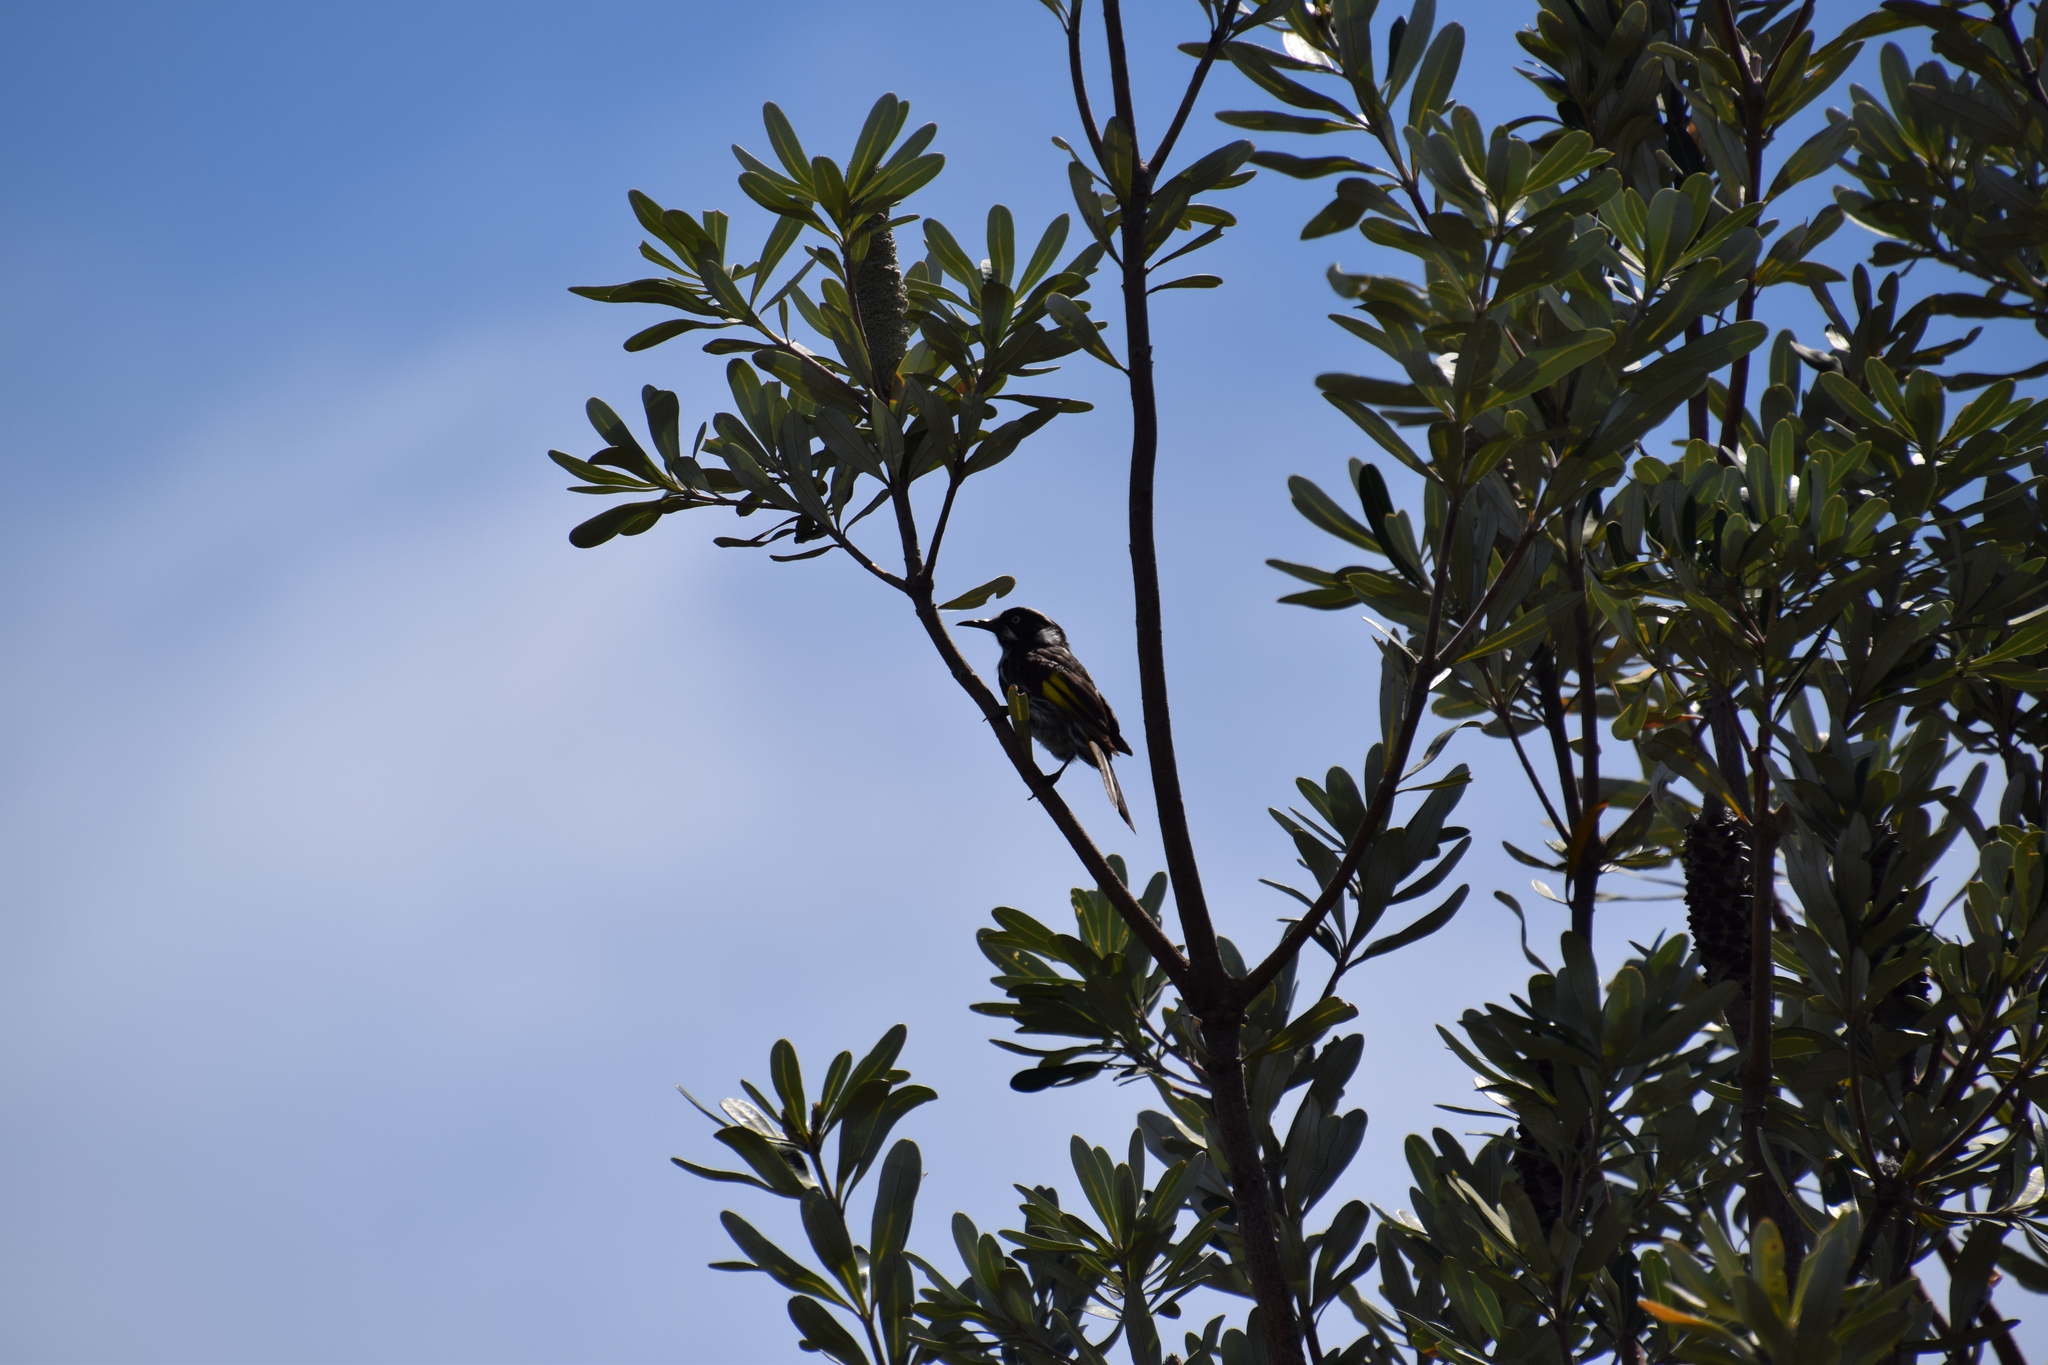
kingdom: Animalia
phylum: Chordata
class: Aves
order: Passeriformes
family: Meliphagidae
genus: Phylidonyris
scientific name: Phylidonyris novaehollandiae
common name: New holland honeyeater
